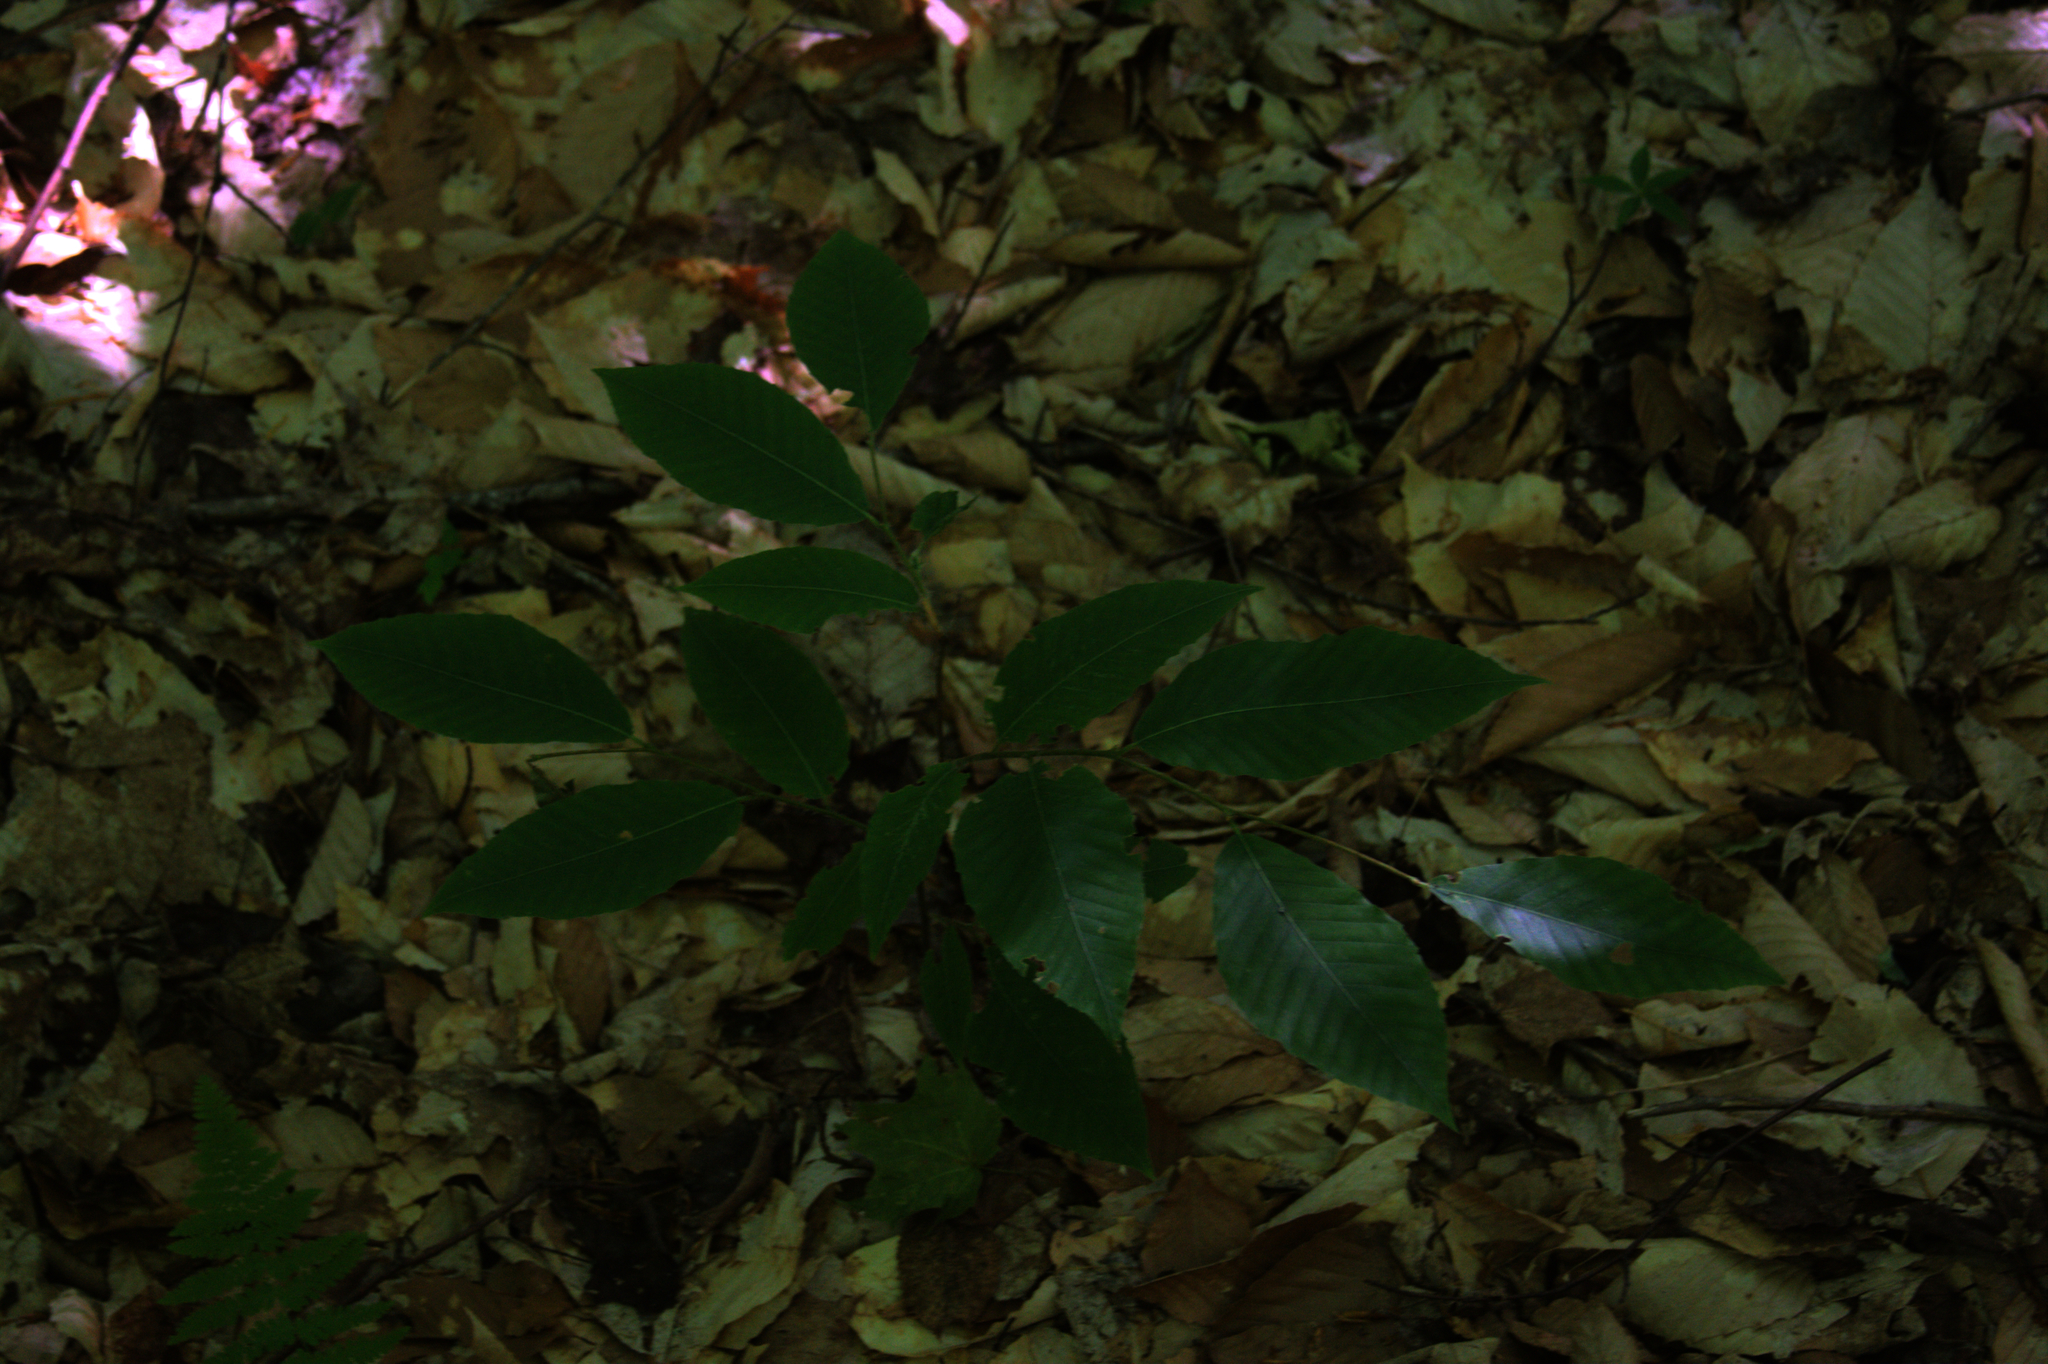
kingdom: Plantae
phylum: Tracheophyta
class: Magnoliopsida
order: Fagales
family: Fagaceae
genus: Fagus
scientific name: Fagus grandifolia
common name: American beech
